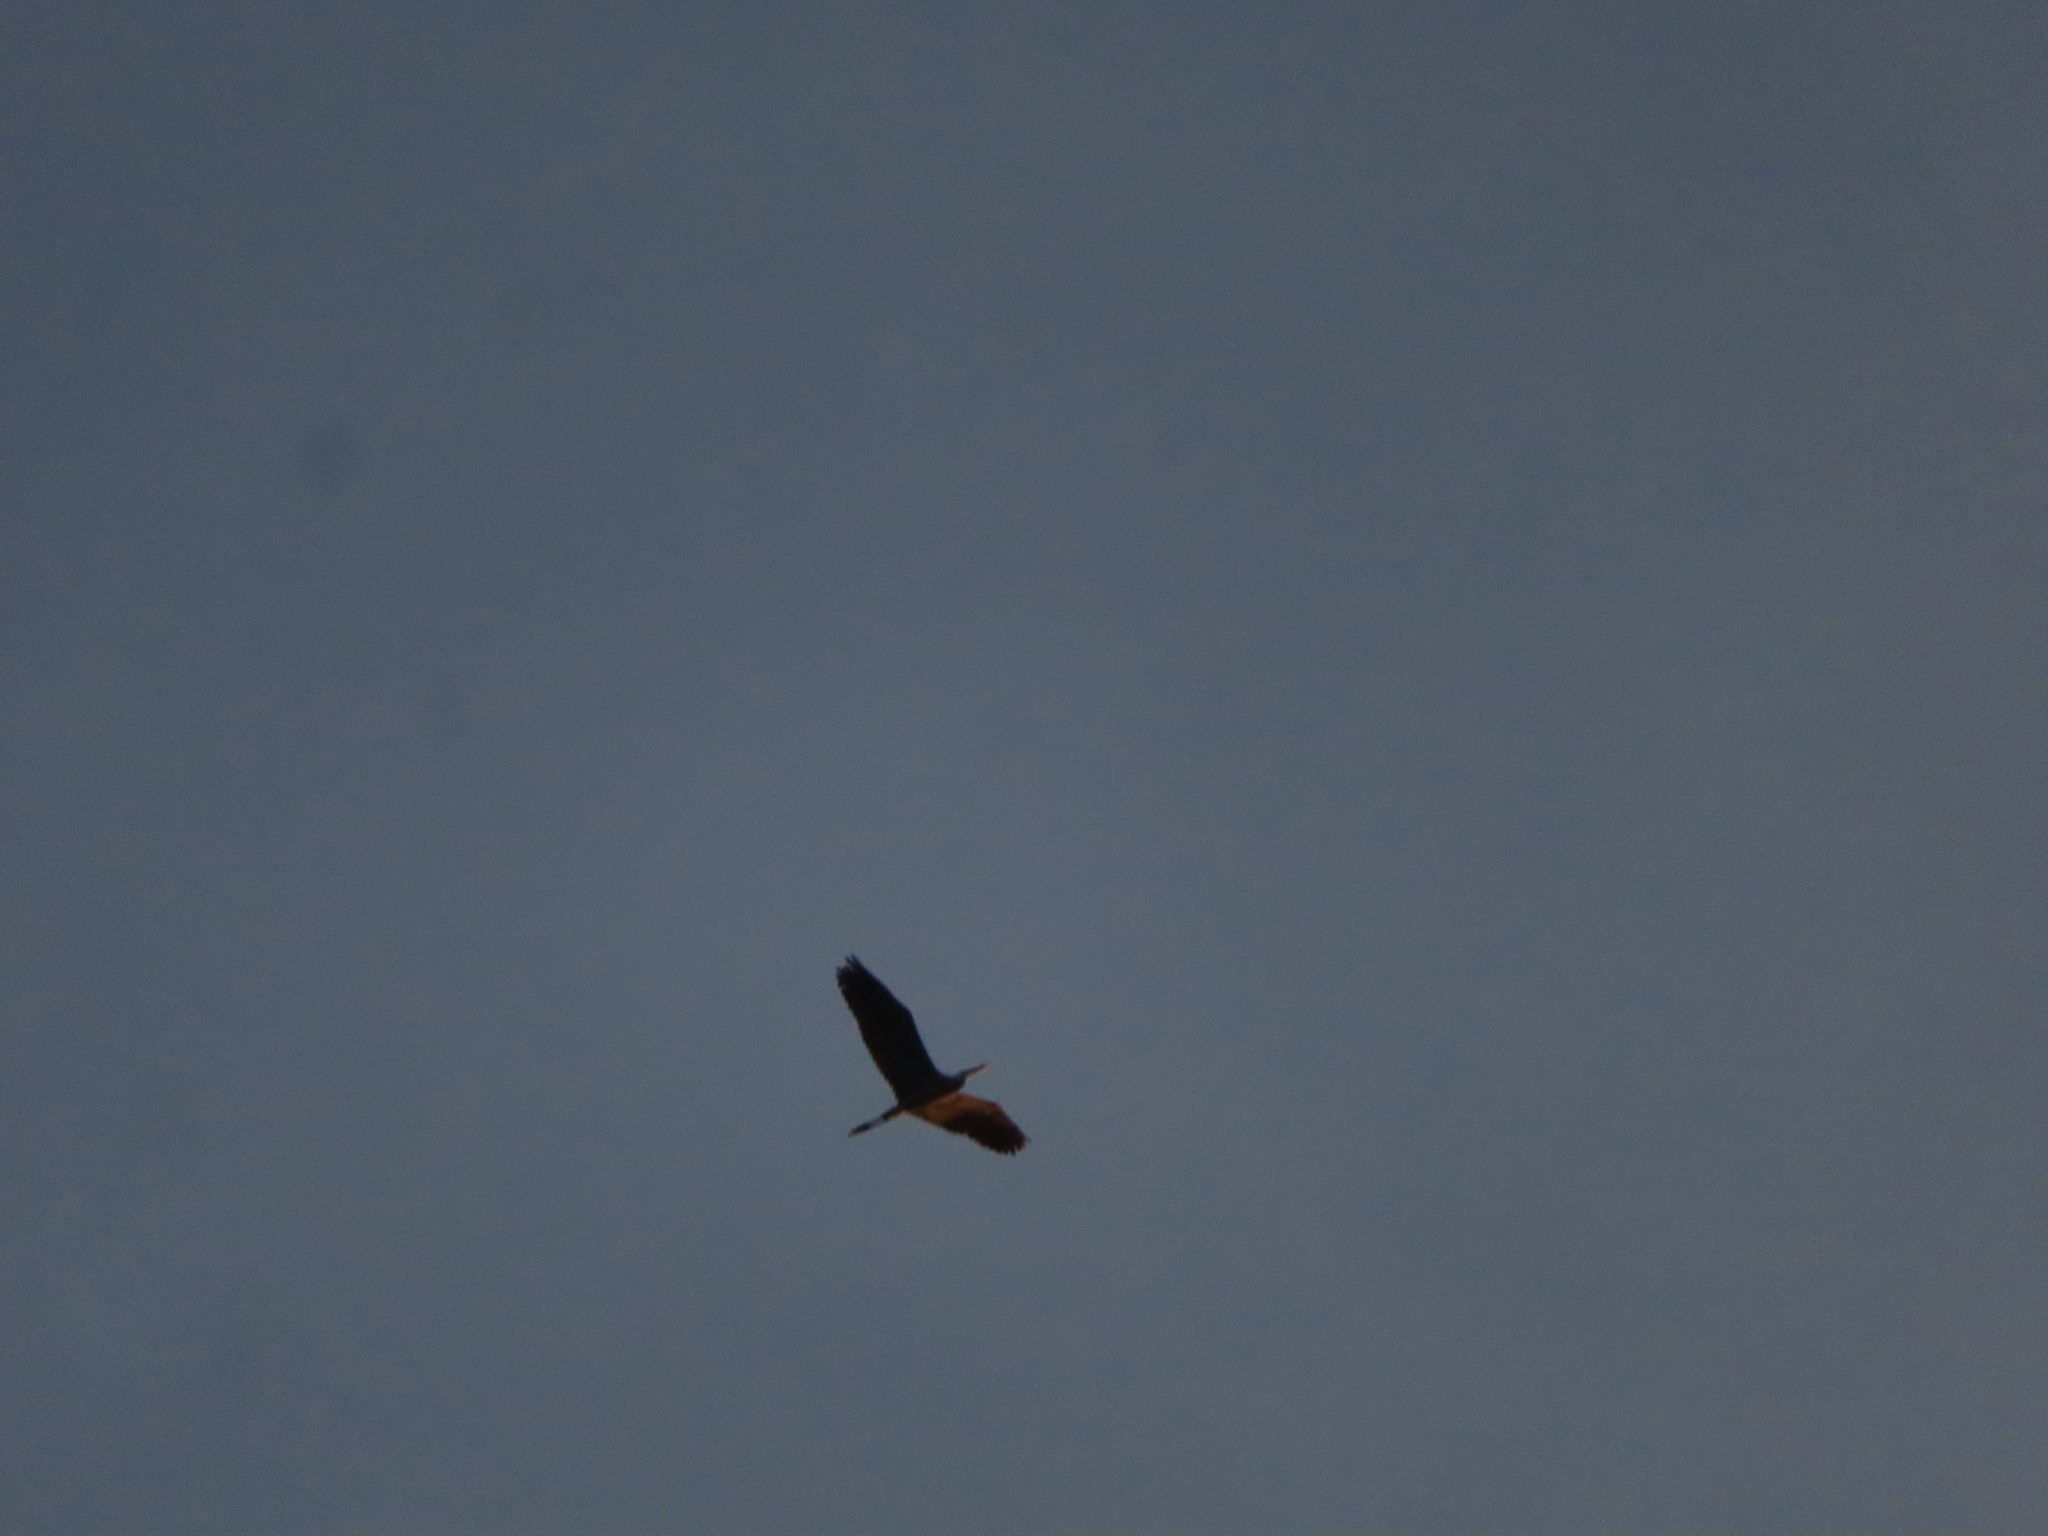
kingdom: Animalia
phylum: Chordata
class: Aves
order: Pelecaniformes
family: Ardeidae
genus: Ardea
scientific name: Ardea herodias
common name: Great blue heron
